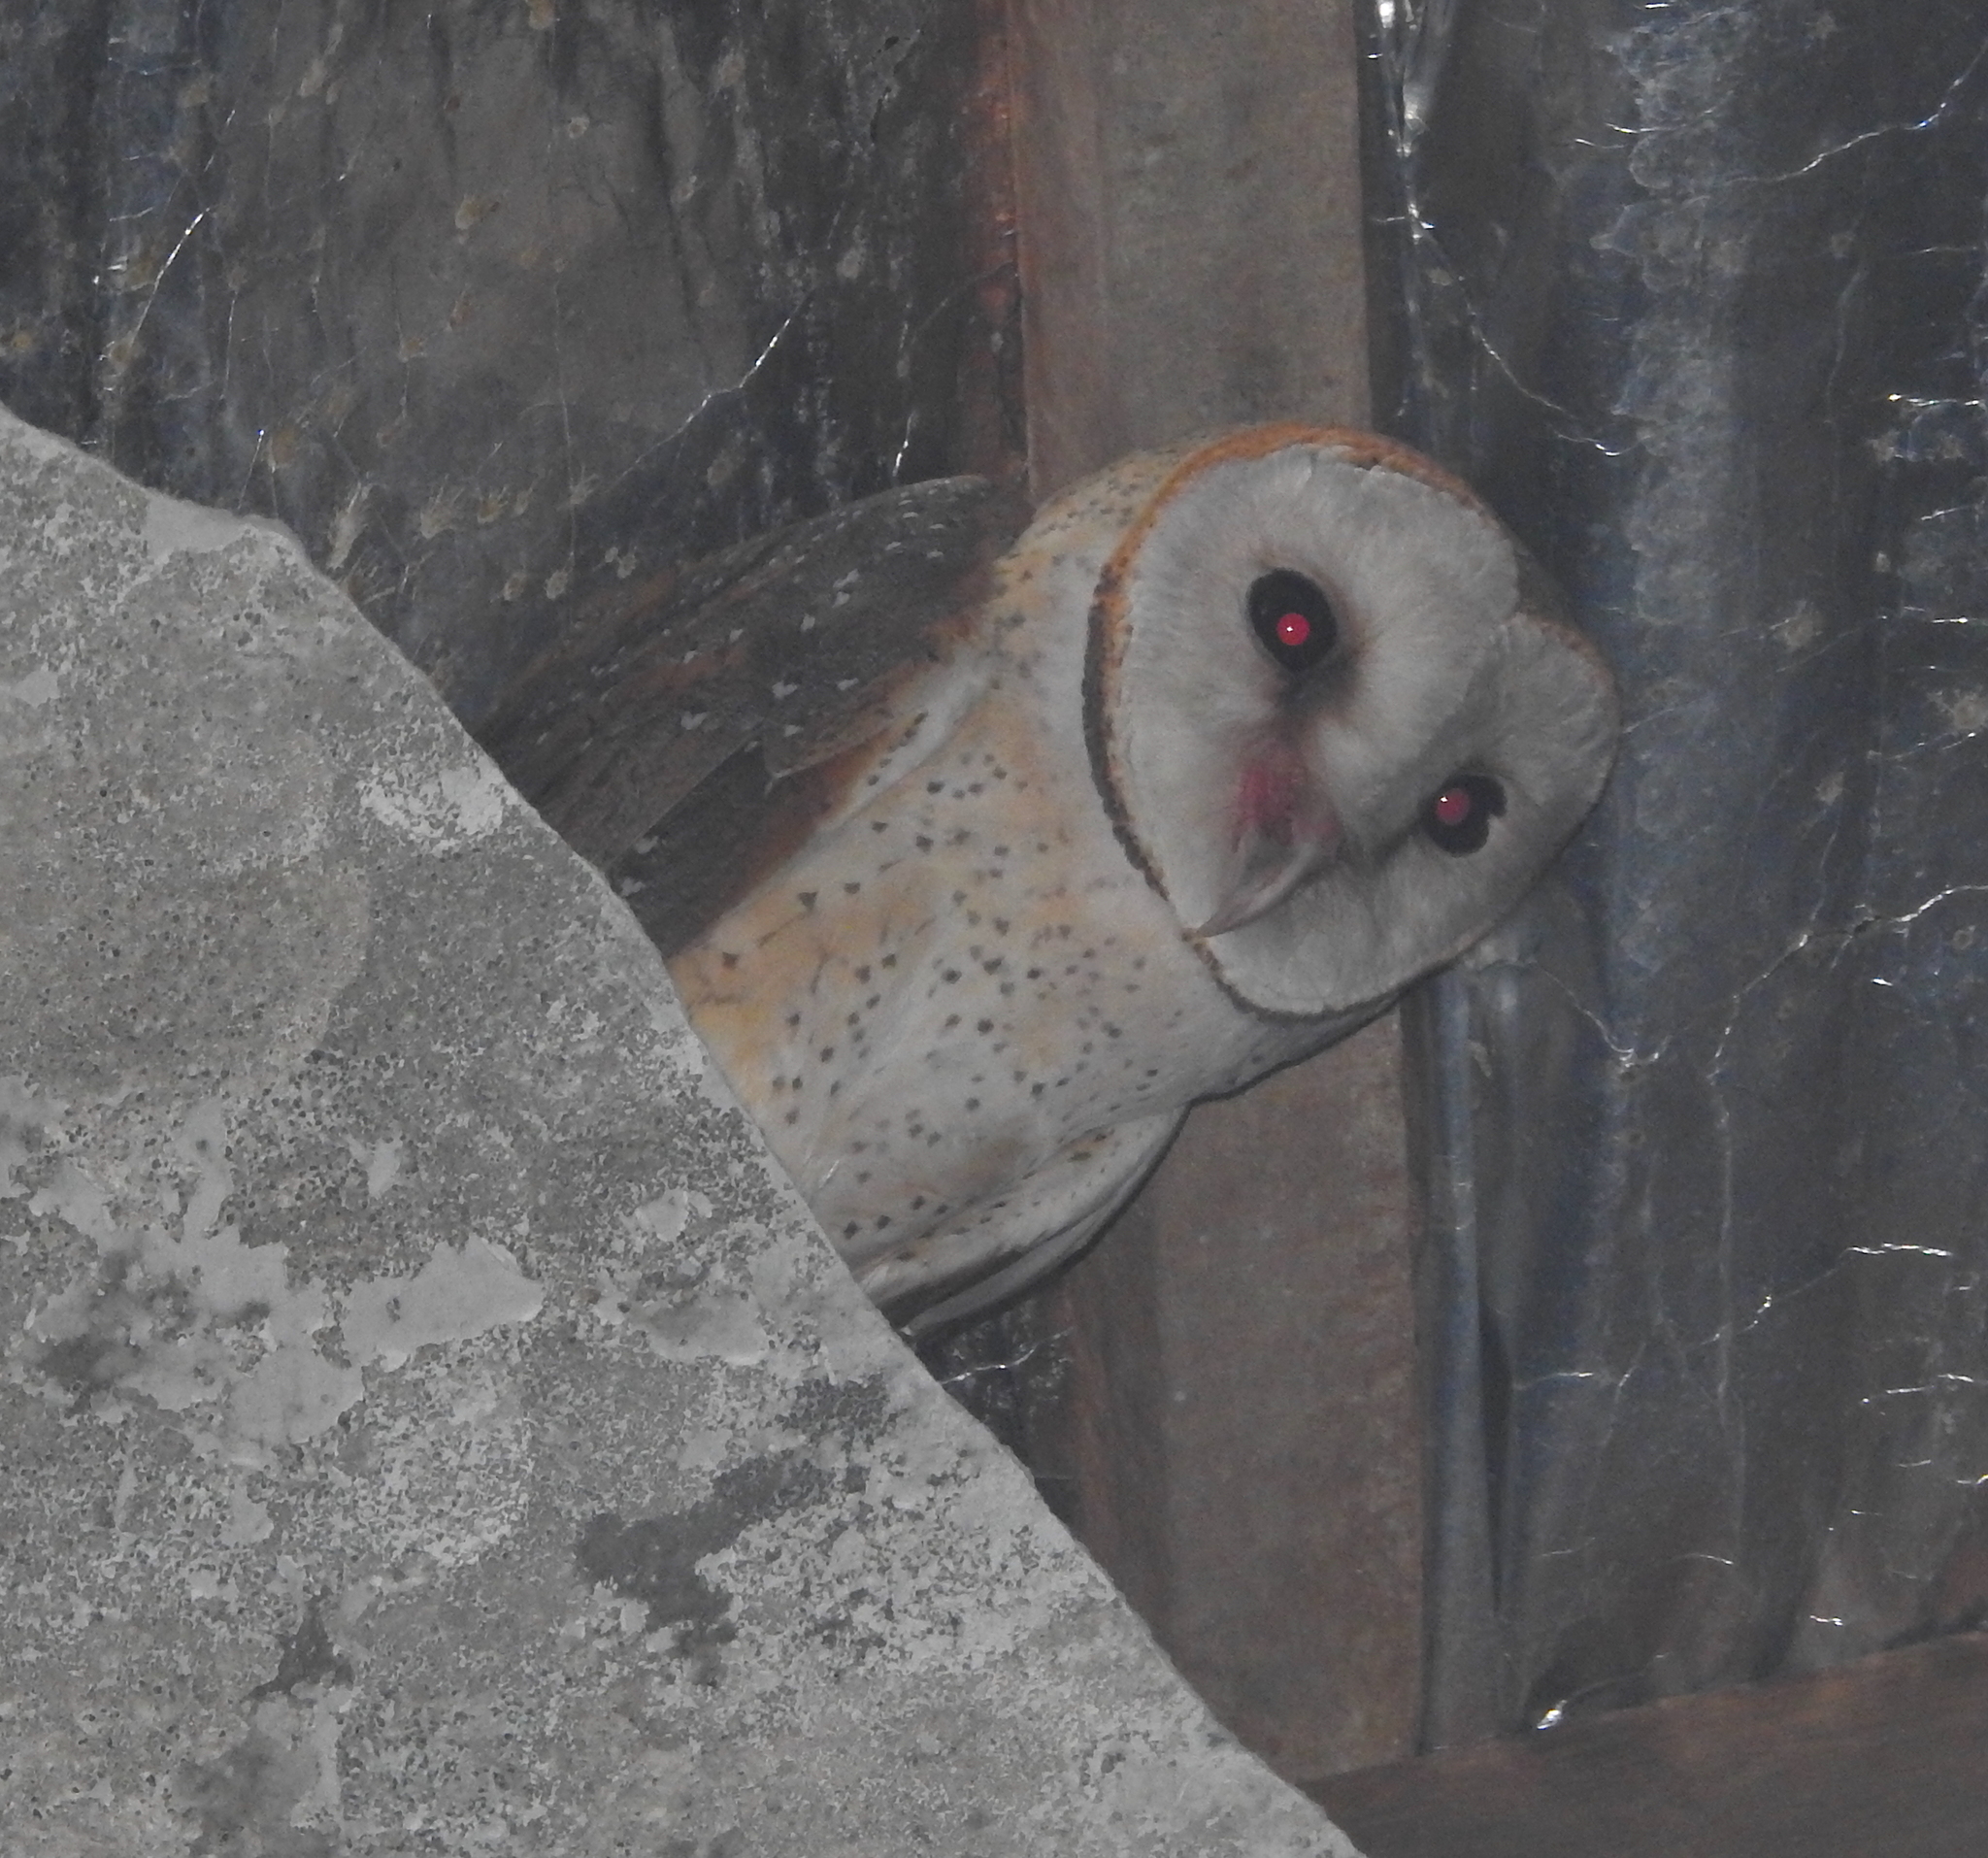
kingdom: Animalia
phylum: Chordata
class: Aves
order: Strigiformes
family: Tytonidae
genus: Tyto
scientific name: Tyto alba
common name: Barn owl
